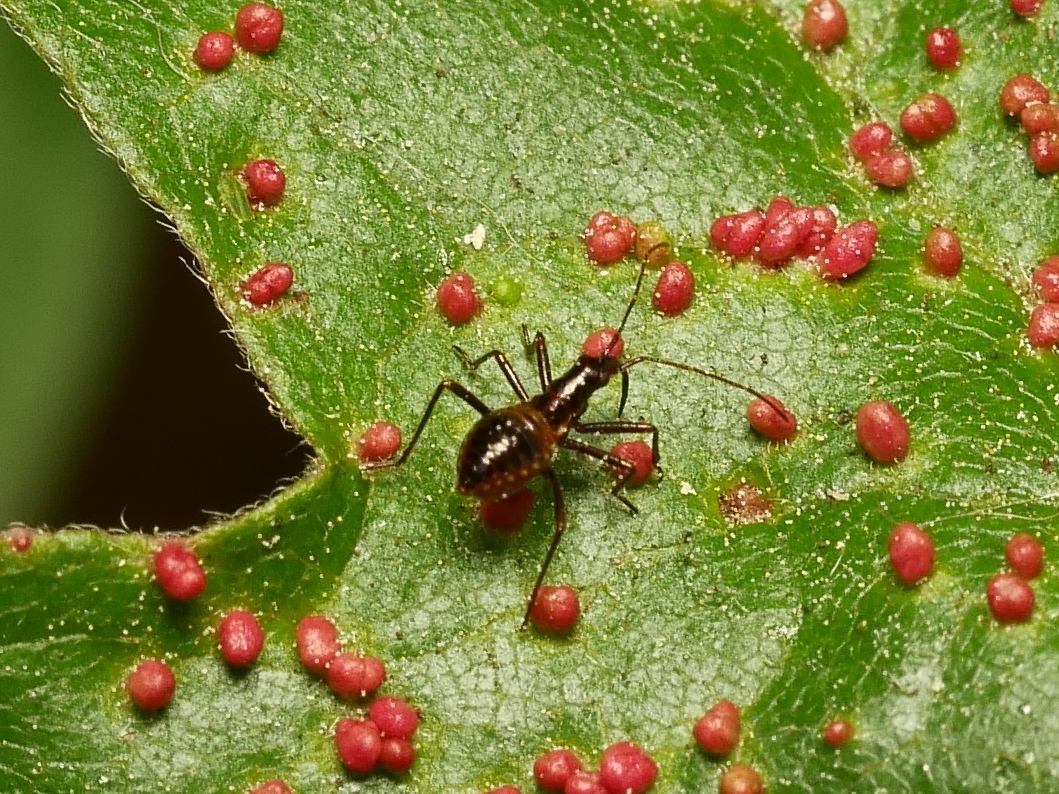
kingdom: Animalia
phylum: Arthropoda
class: Insecta
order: Hemiptera
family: Nabidae
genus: Himacerus
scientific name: Himacerus apterus
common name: Tree damsel bug
